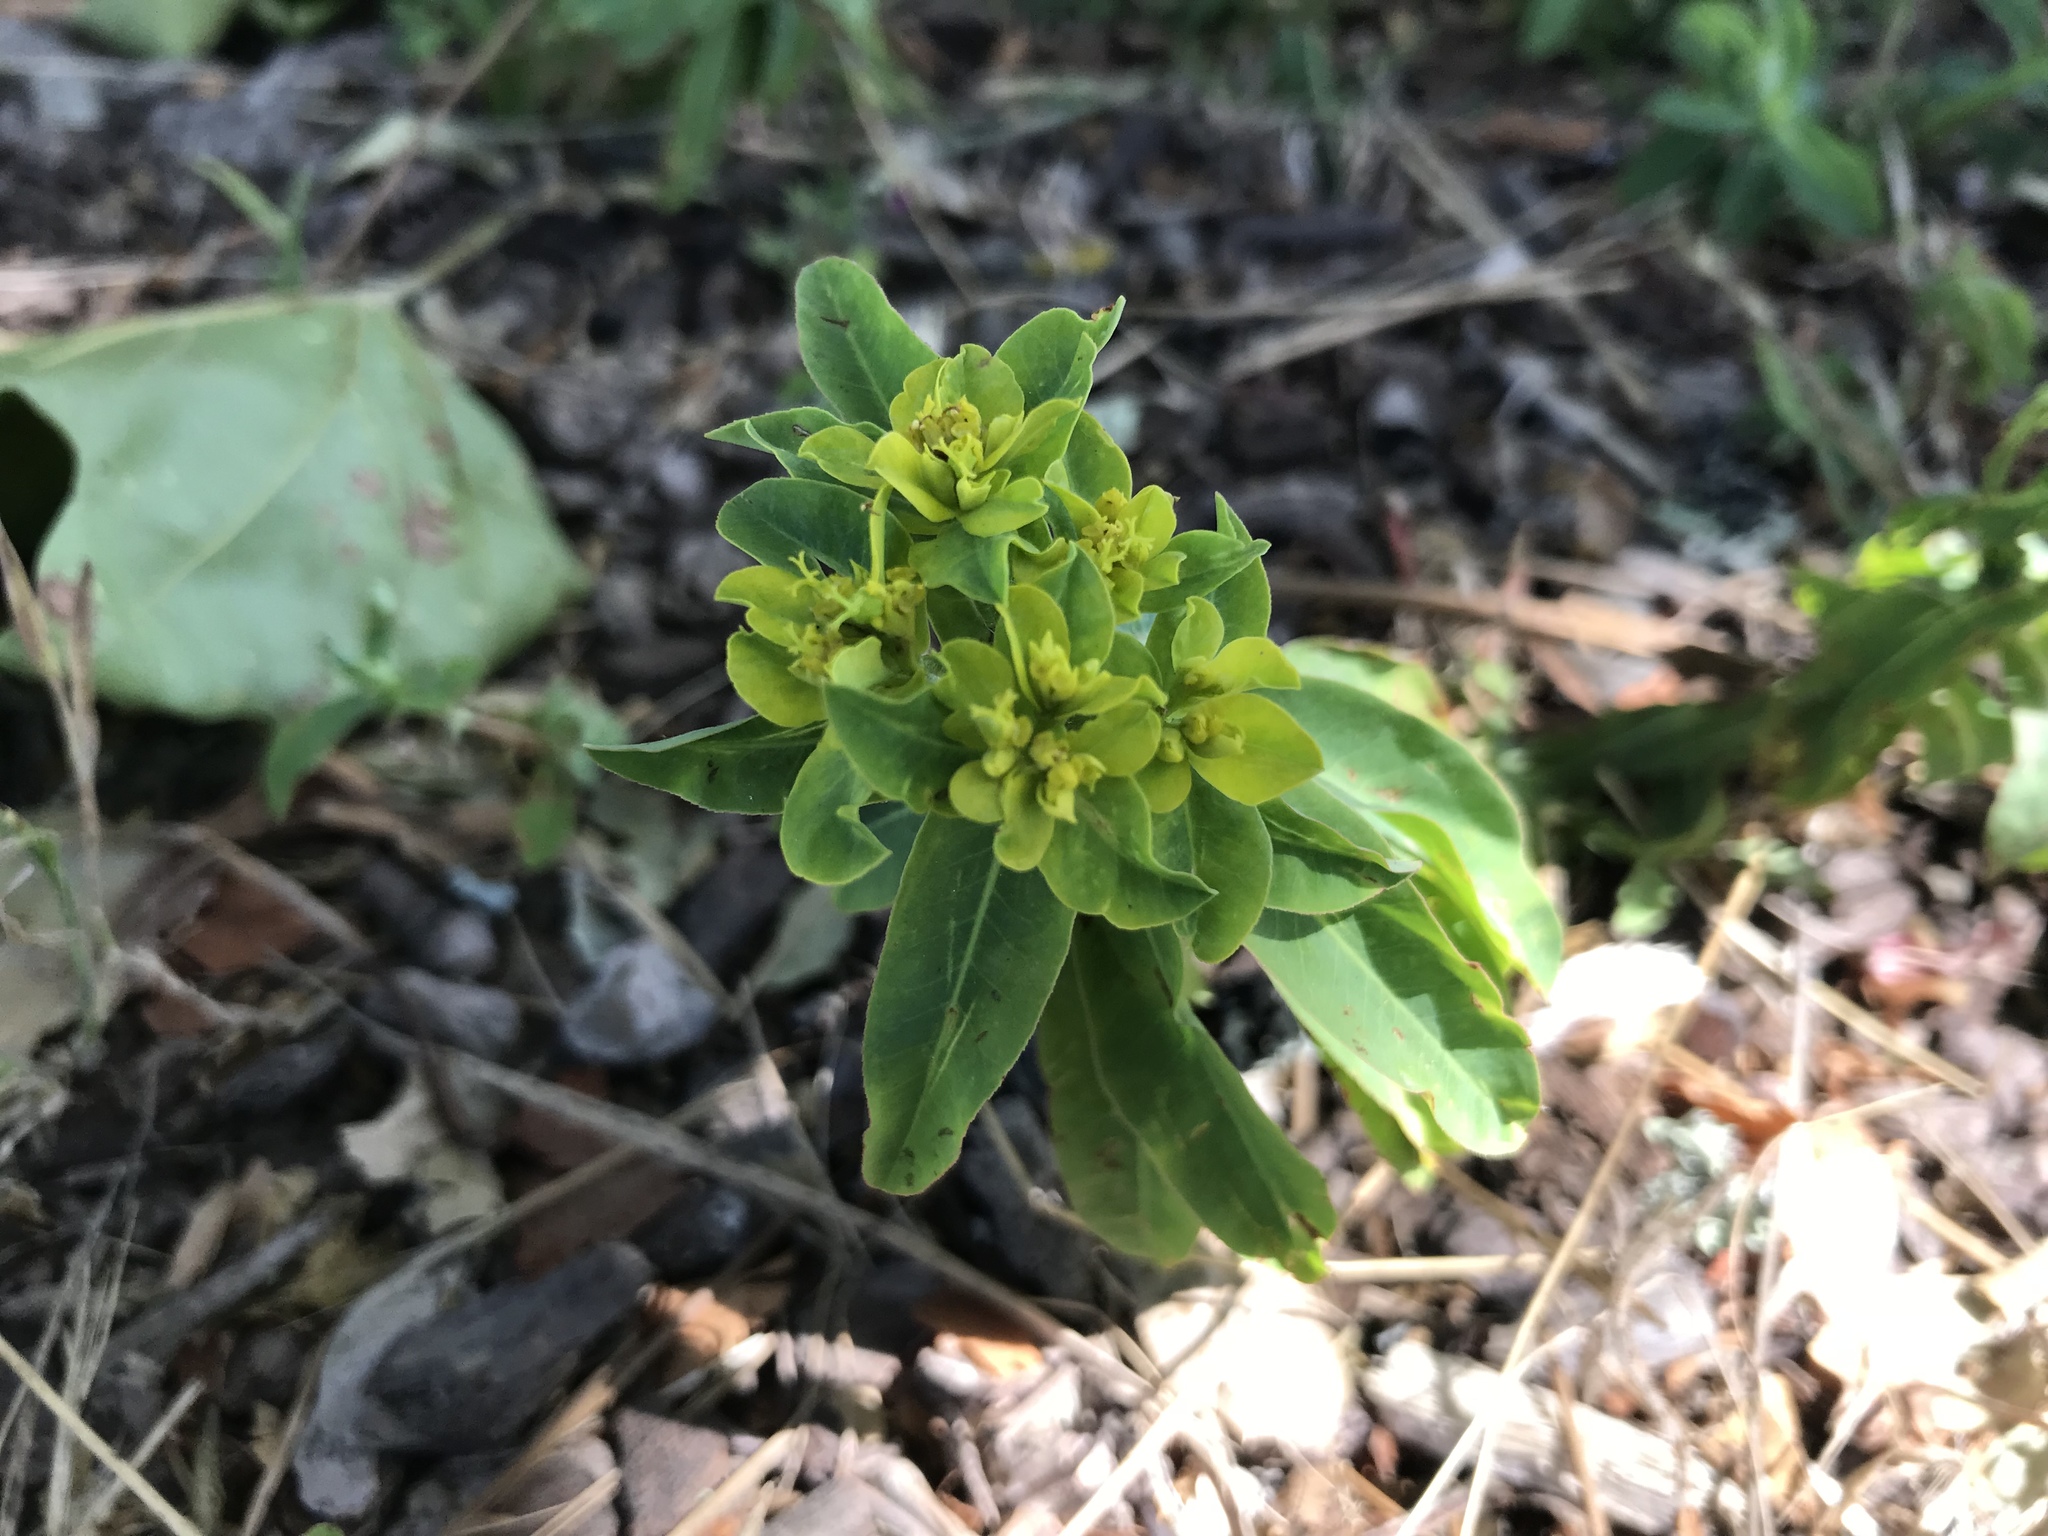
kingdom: Plantae
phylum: Tracheophyta
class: Magnoliopsida
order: Malpighiales
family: Euphorbiaceae
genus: Euphorbia
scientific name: Euphorbia oblongata
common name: Balkan spurge
